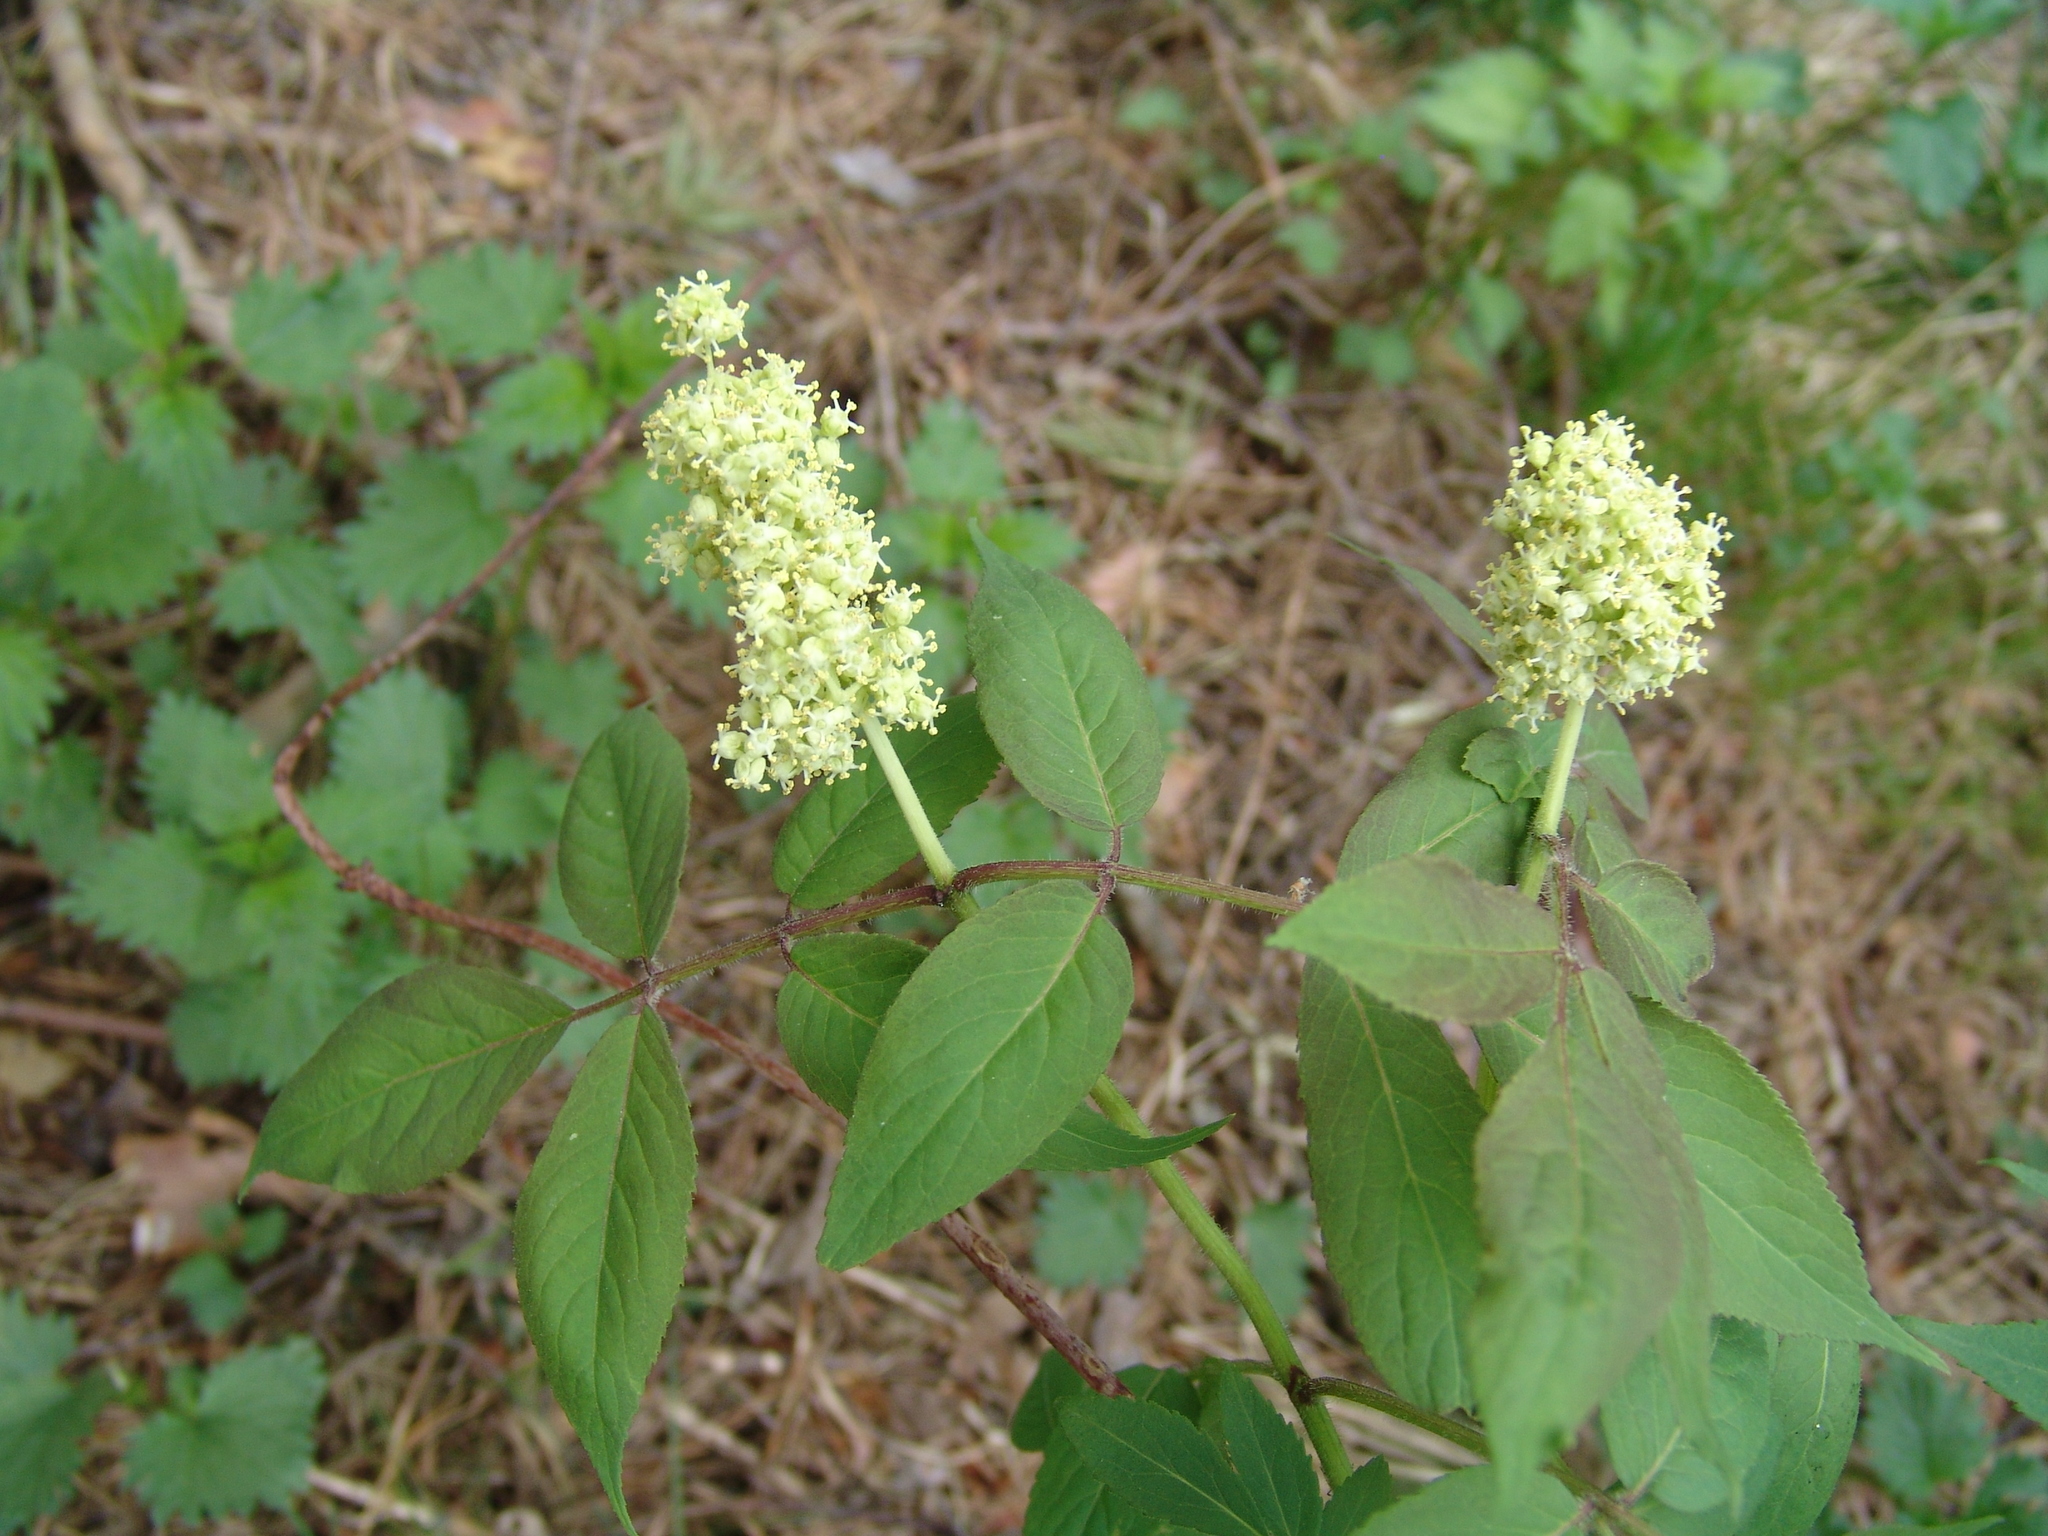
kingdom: Plantae
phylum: Tracheophyta
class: Magnoliopsida
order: Dipsacales
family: Viburnaceae
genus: Sambucus
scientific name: Sambucus sibirica
